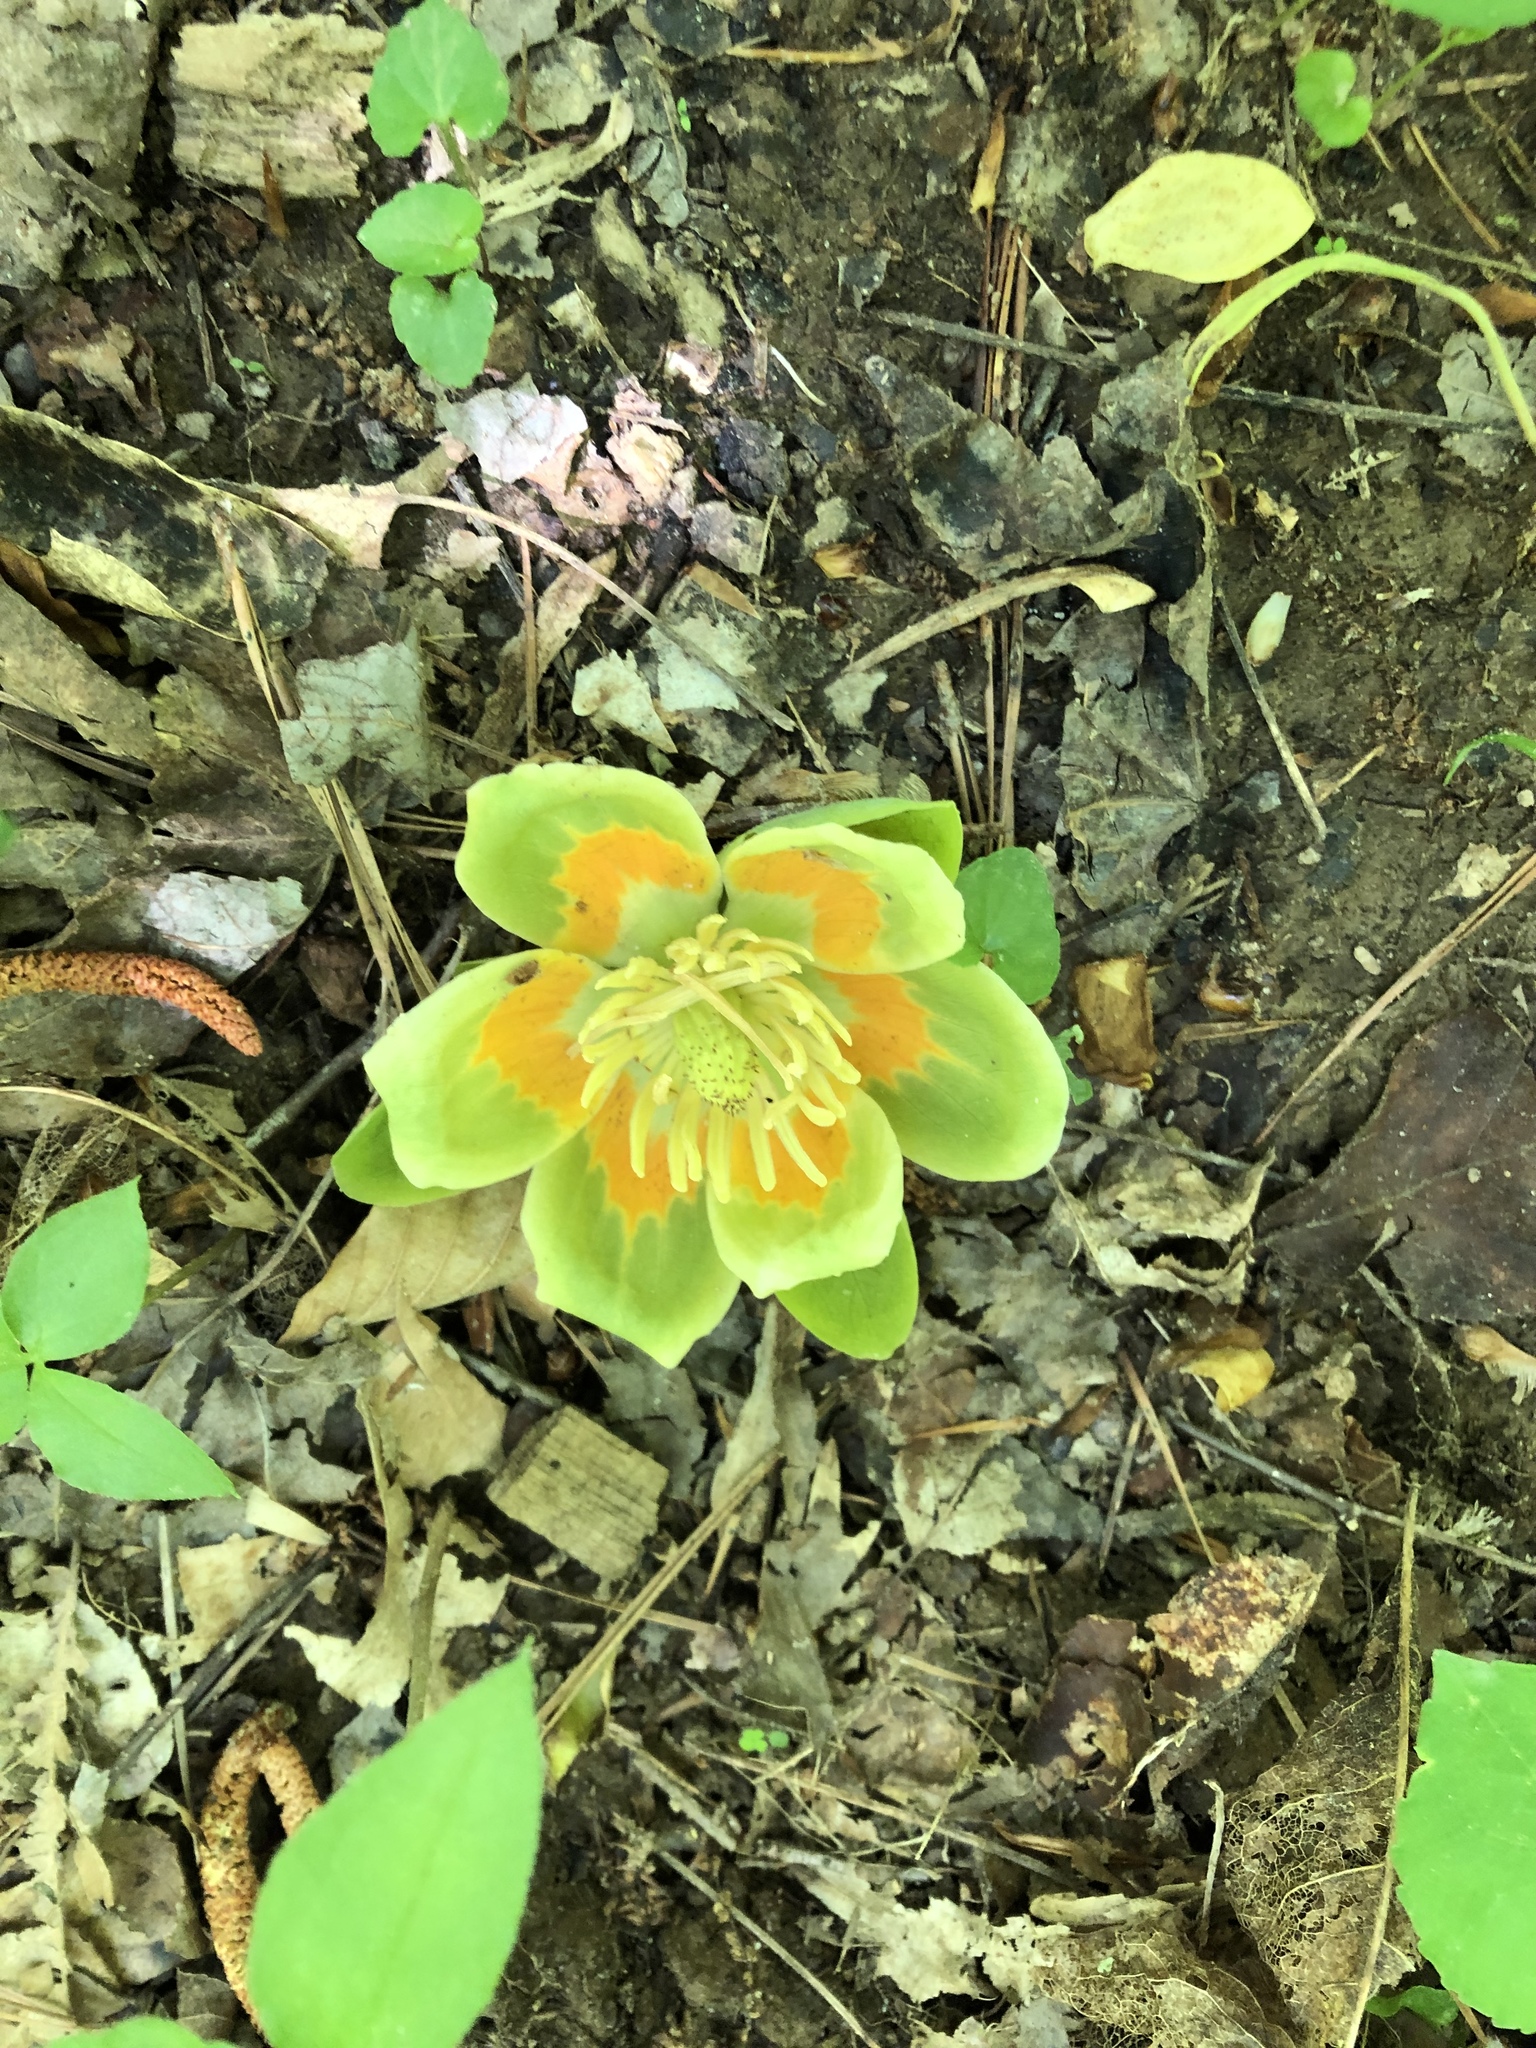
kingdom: Plantae
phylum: Tracheophyta
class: Magnoliopsida
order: Magnoliales
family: Magnoliaceae
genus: Liriodendron
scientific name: Liriodendron tulipifera
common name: Tulip tree
